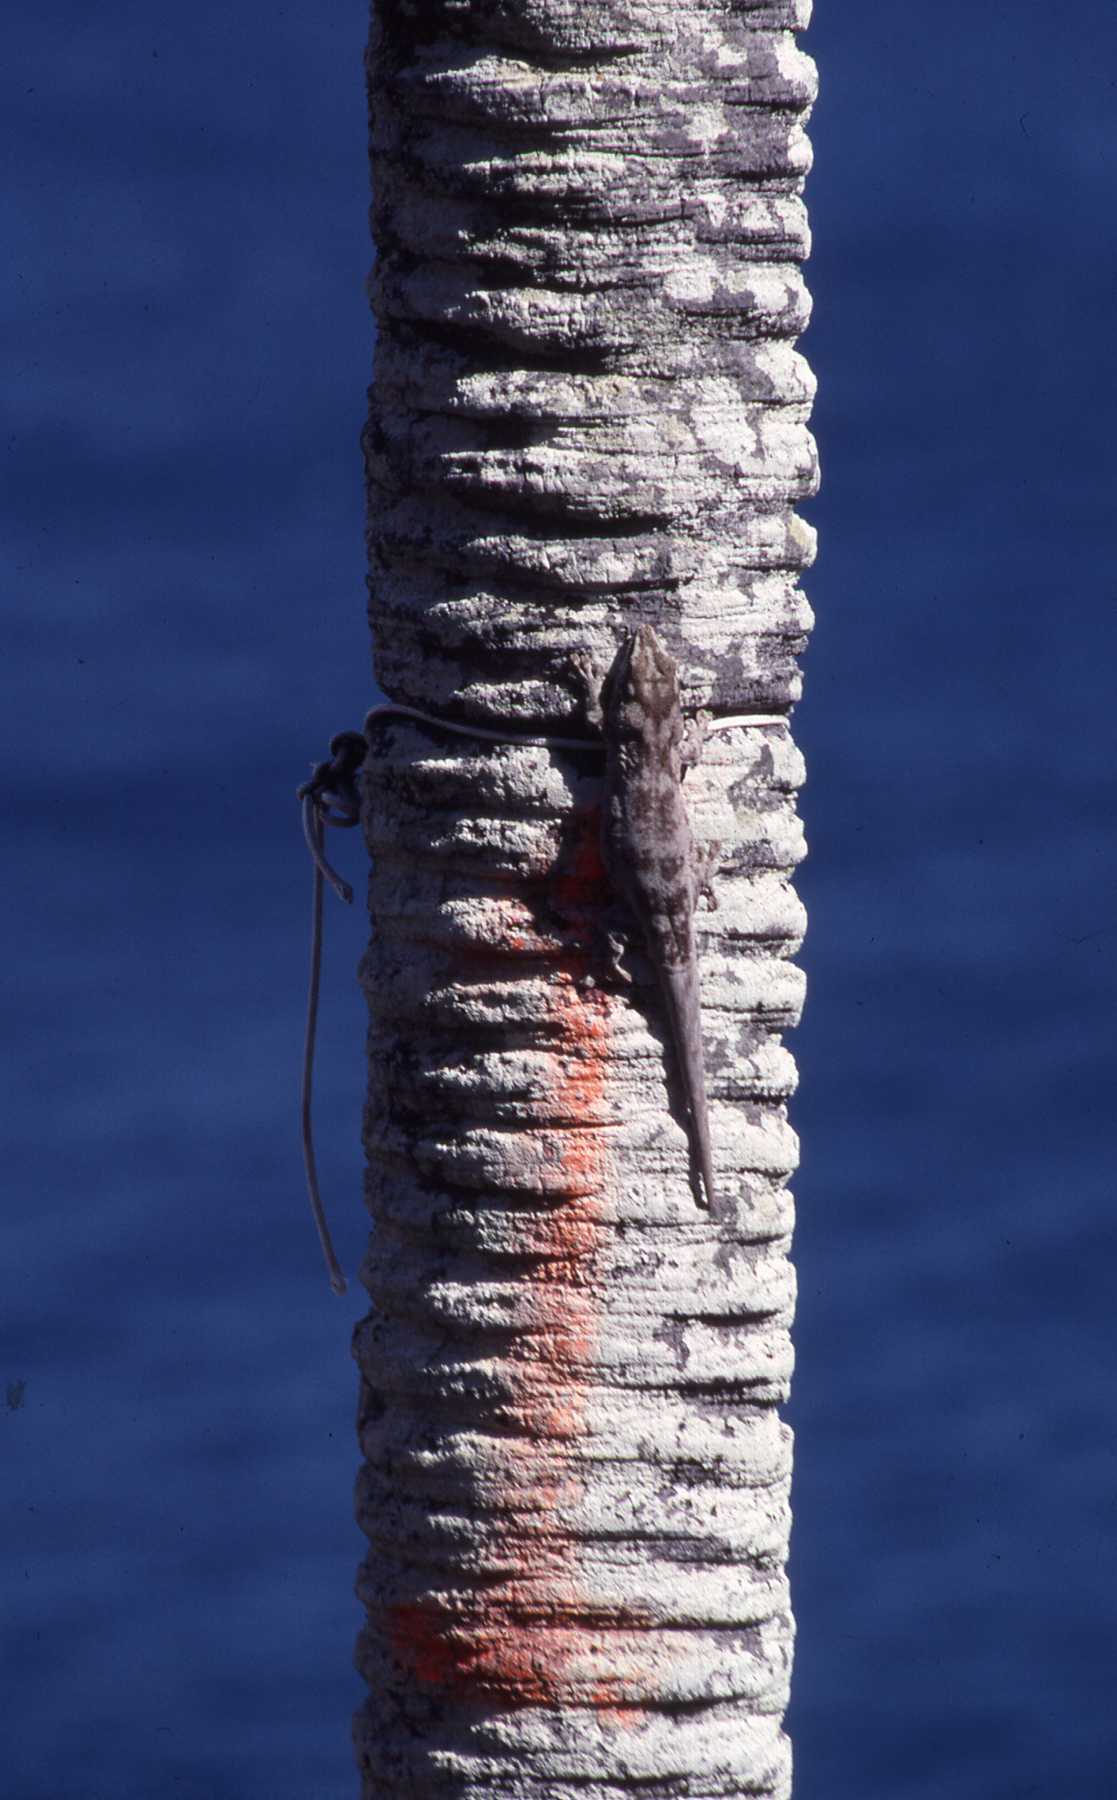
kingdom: Animalia
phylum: Chordata
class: Squamata
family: Gekkonidae
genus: Phelsuma
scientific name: Phelsuma guentheri
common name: Round lsland day gecko
